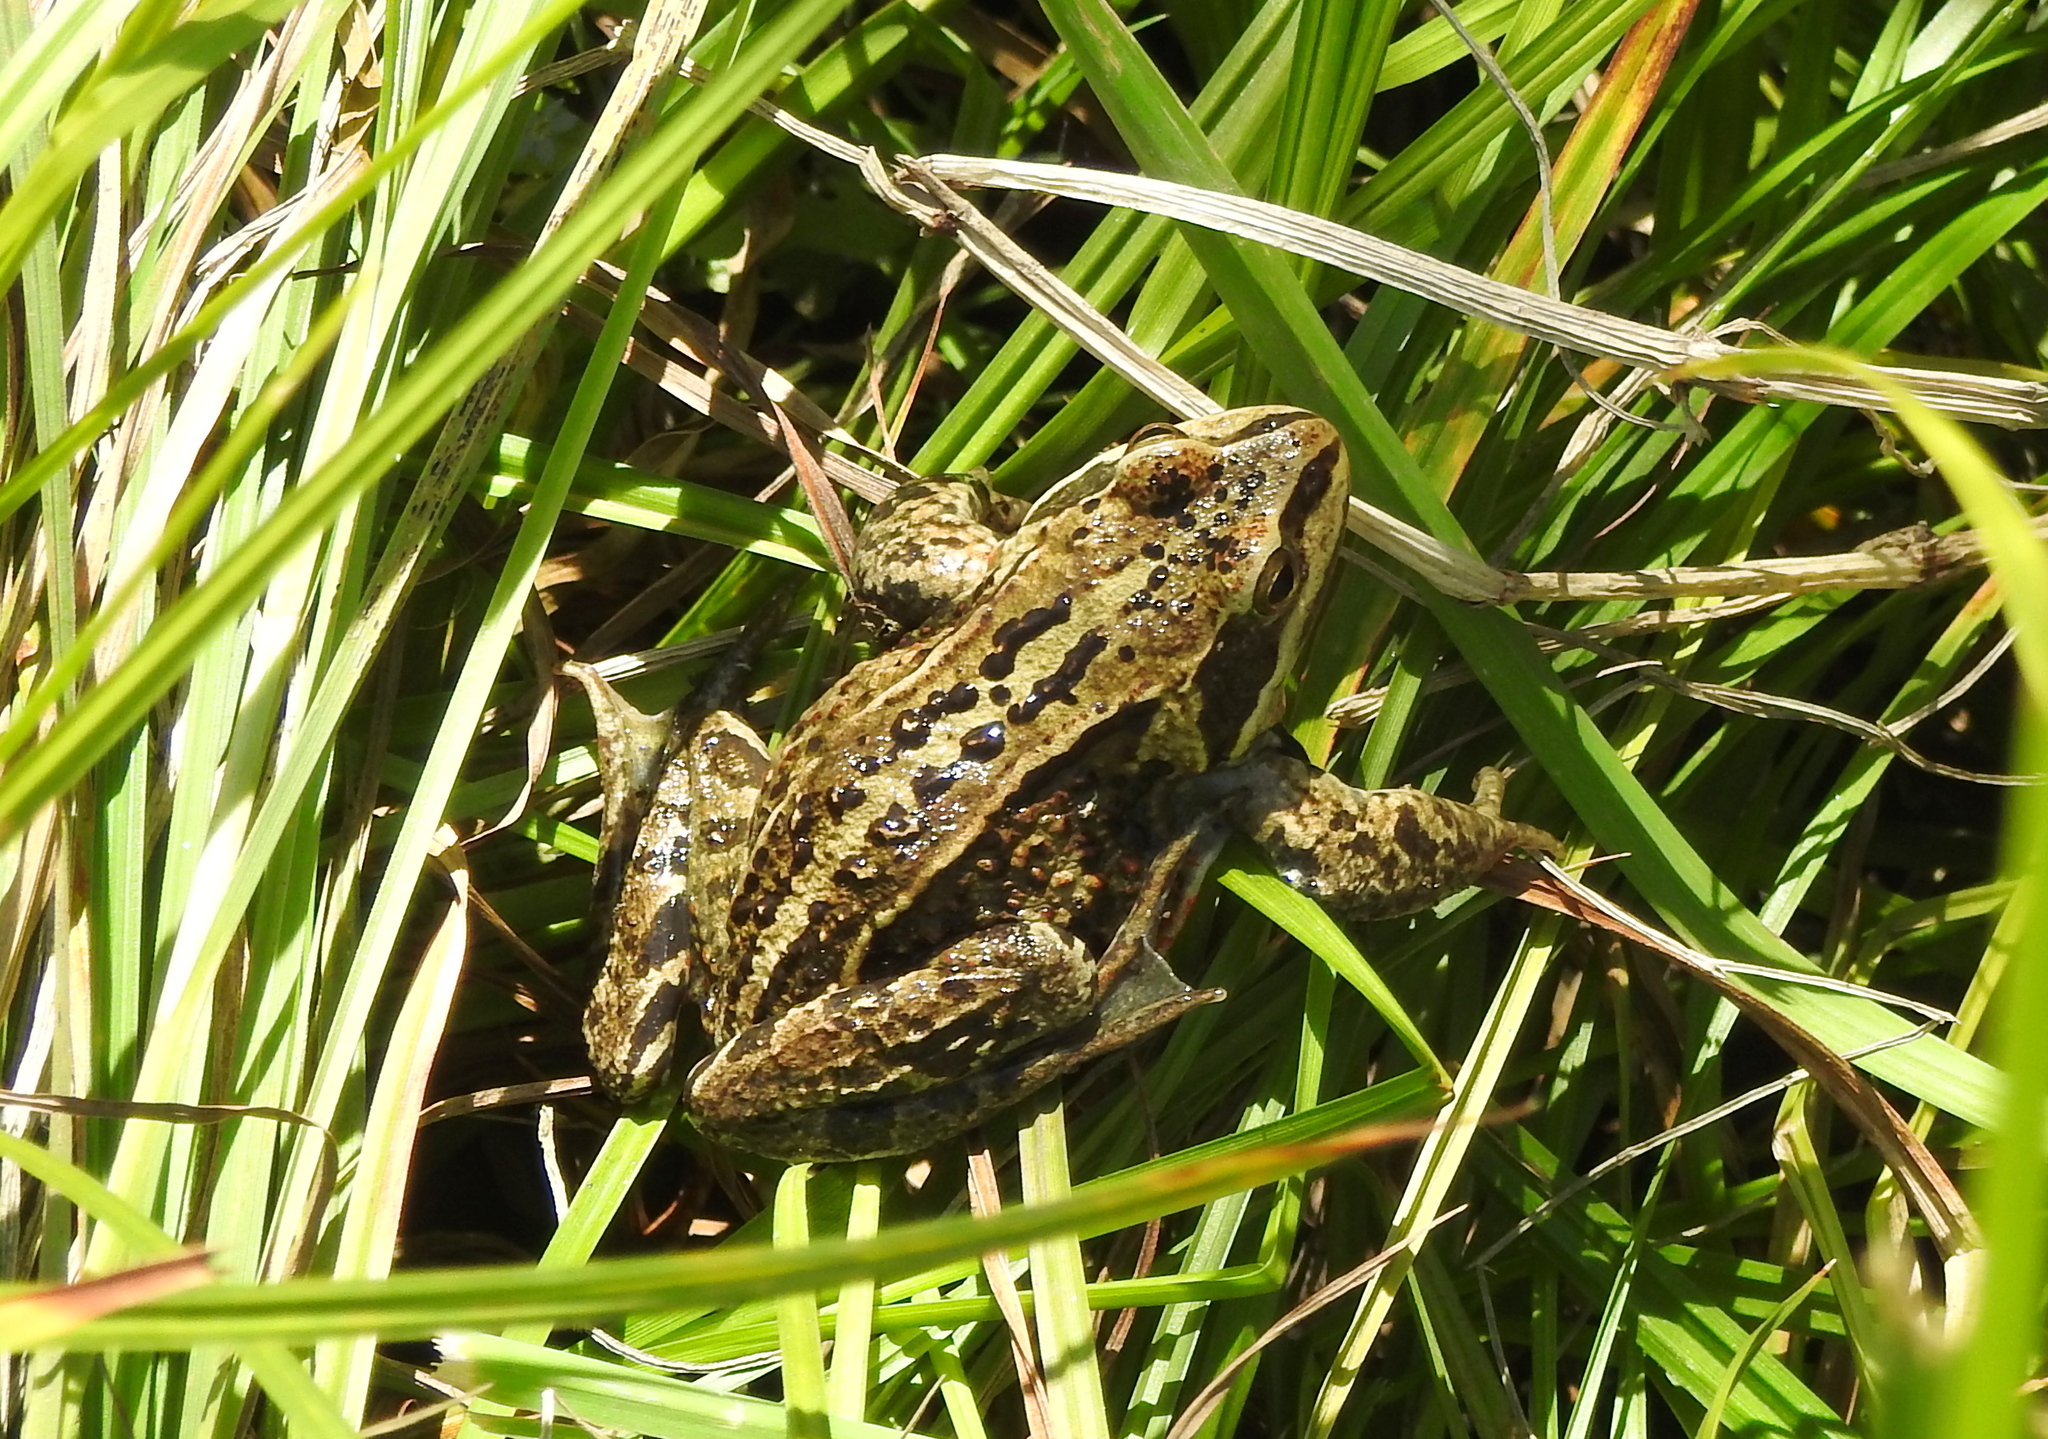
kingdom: Animalia
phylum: Chordata
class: Amphibia
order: Anura
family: Ranidae
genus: Rana
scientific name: Rana amurensis
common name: Amur brown frog
